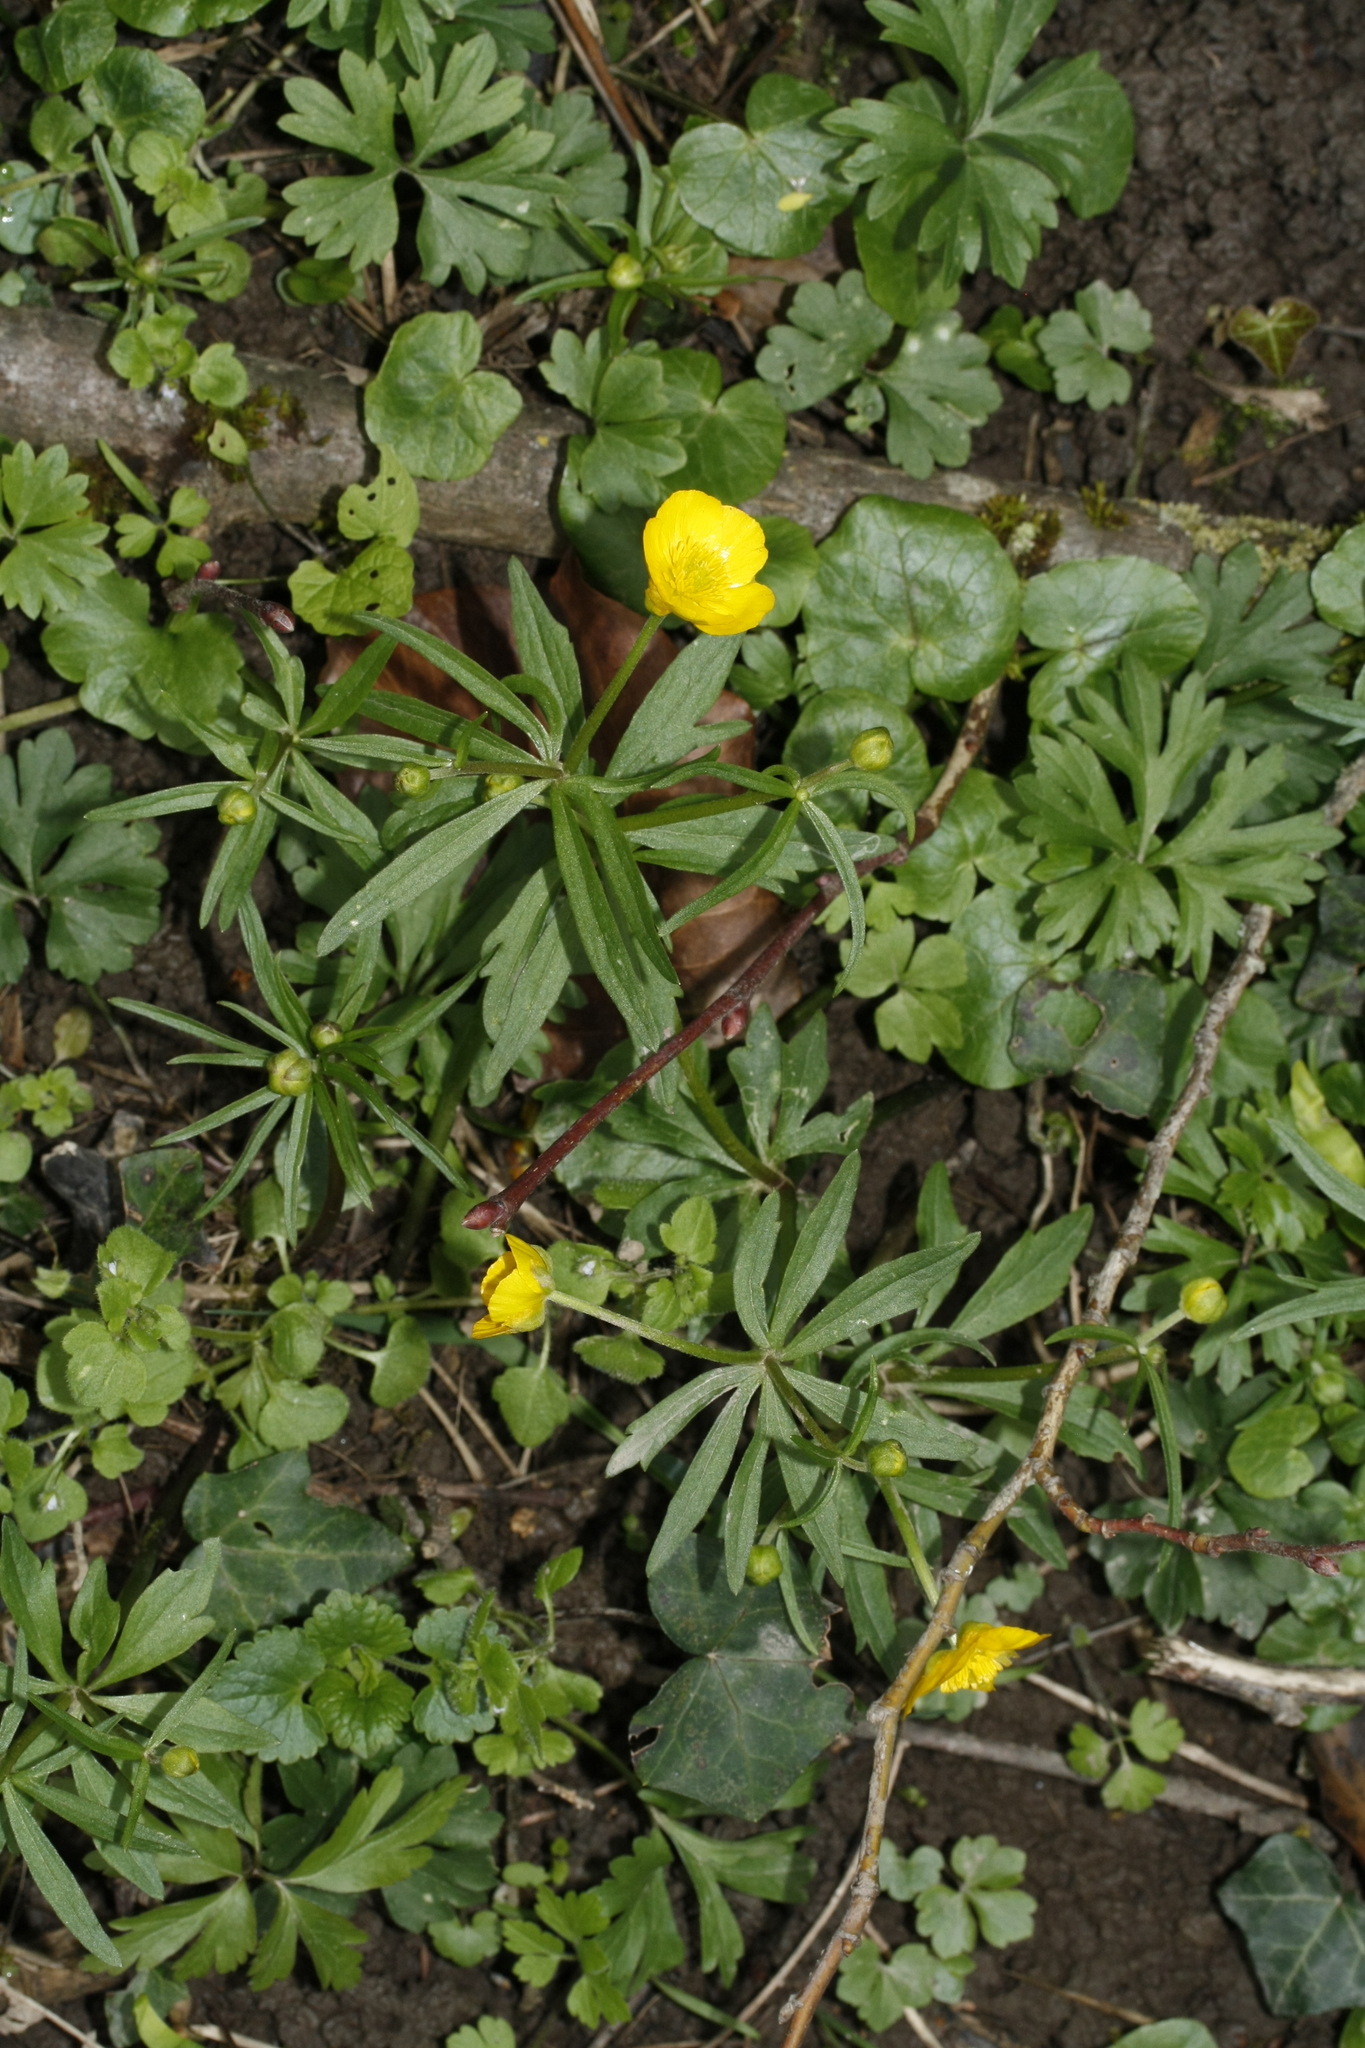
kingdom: Plantae
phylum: Tracheophyta
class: Magnoliopsida
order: Ranunculales
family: Ranunculaceae
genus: Ranunculus
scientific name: Ranunculus auricomus
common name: Goldilocks buttercup
